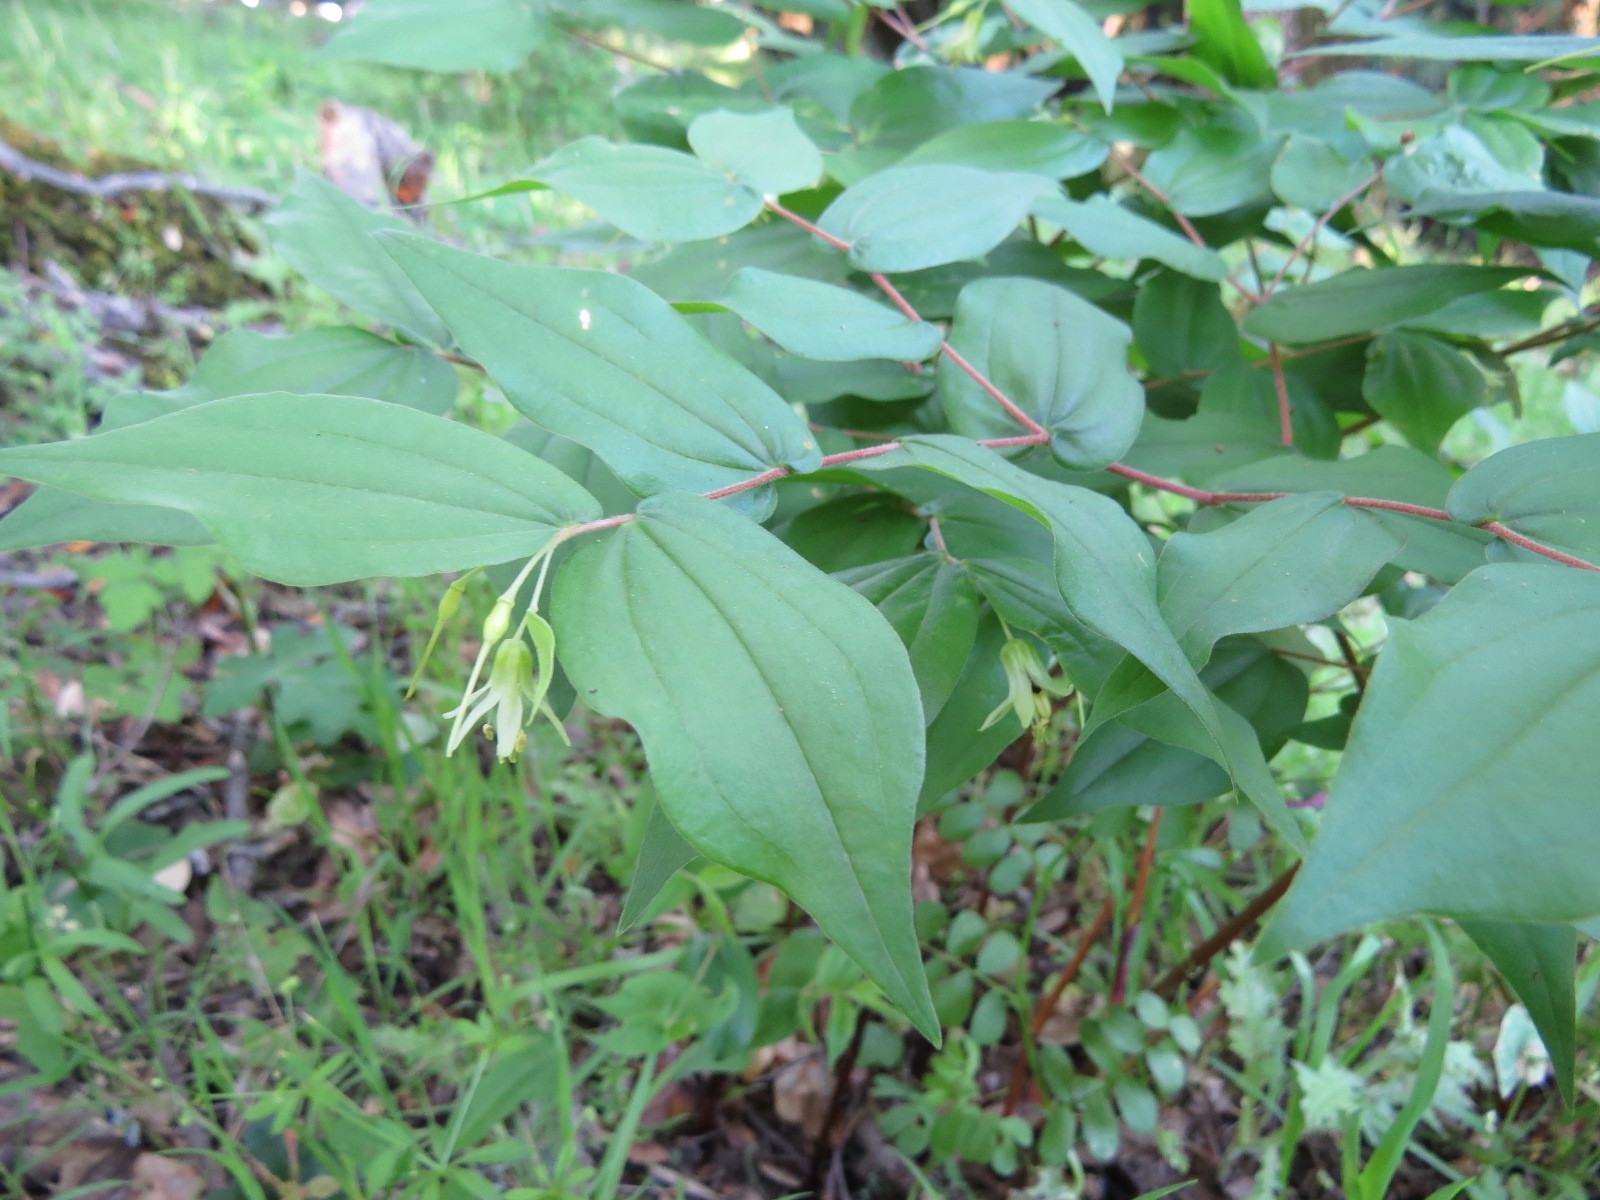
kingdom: Plantae
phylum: Tracheophyta
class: Liliopsida
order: Liliales
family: Liliaceae
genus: Prosartes
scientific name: Prosartes hookeri
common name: Fairy-bells
